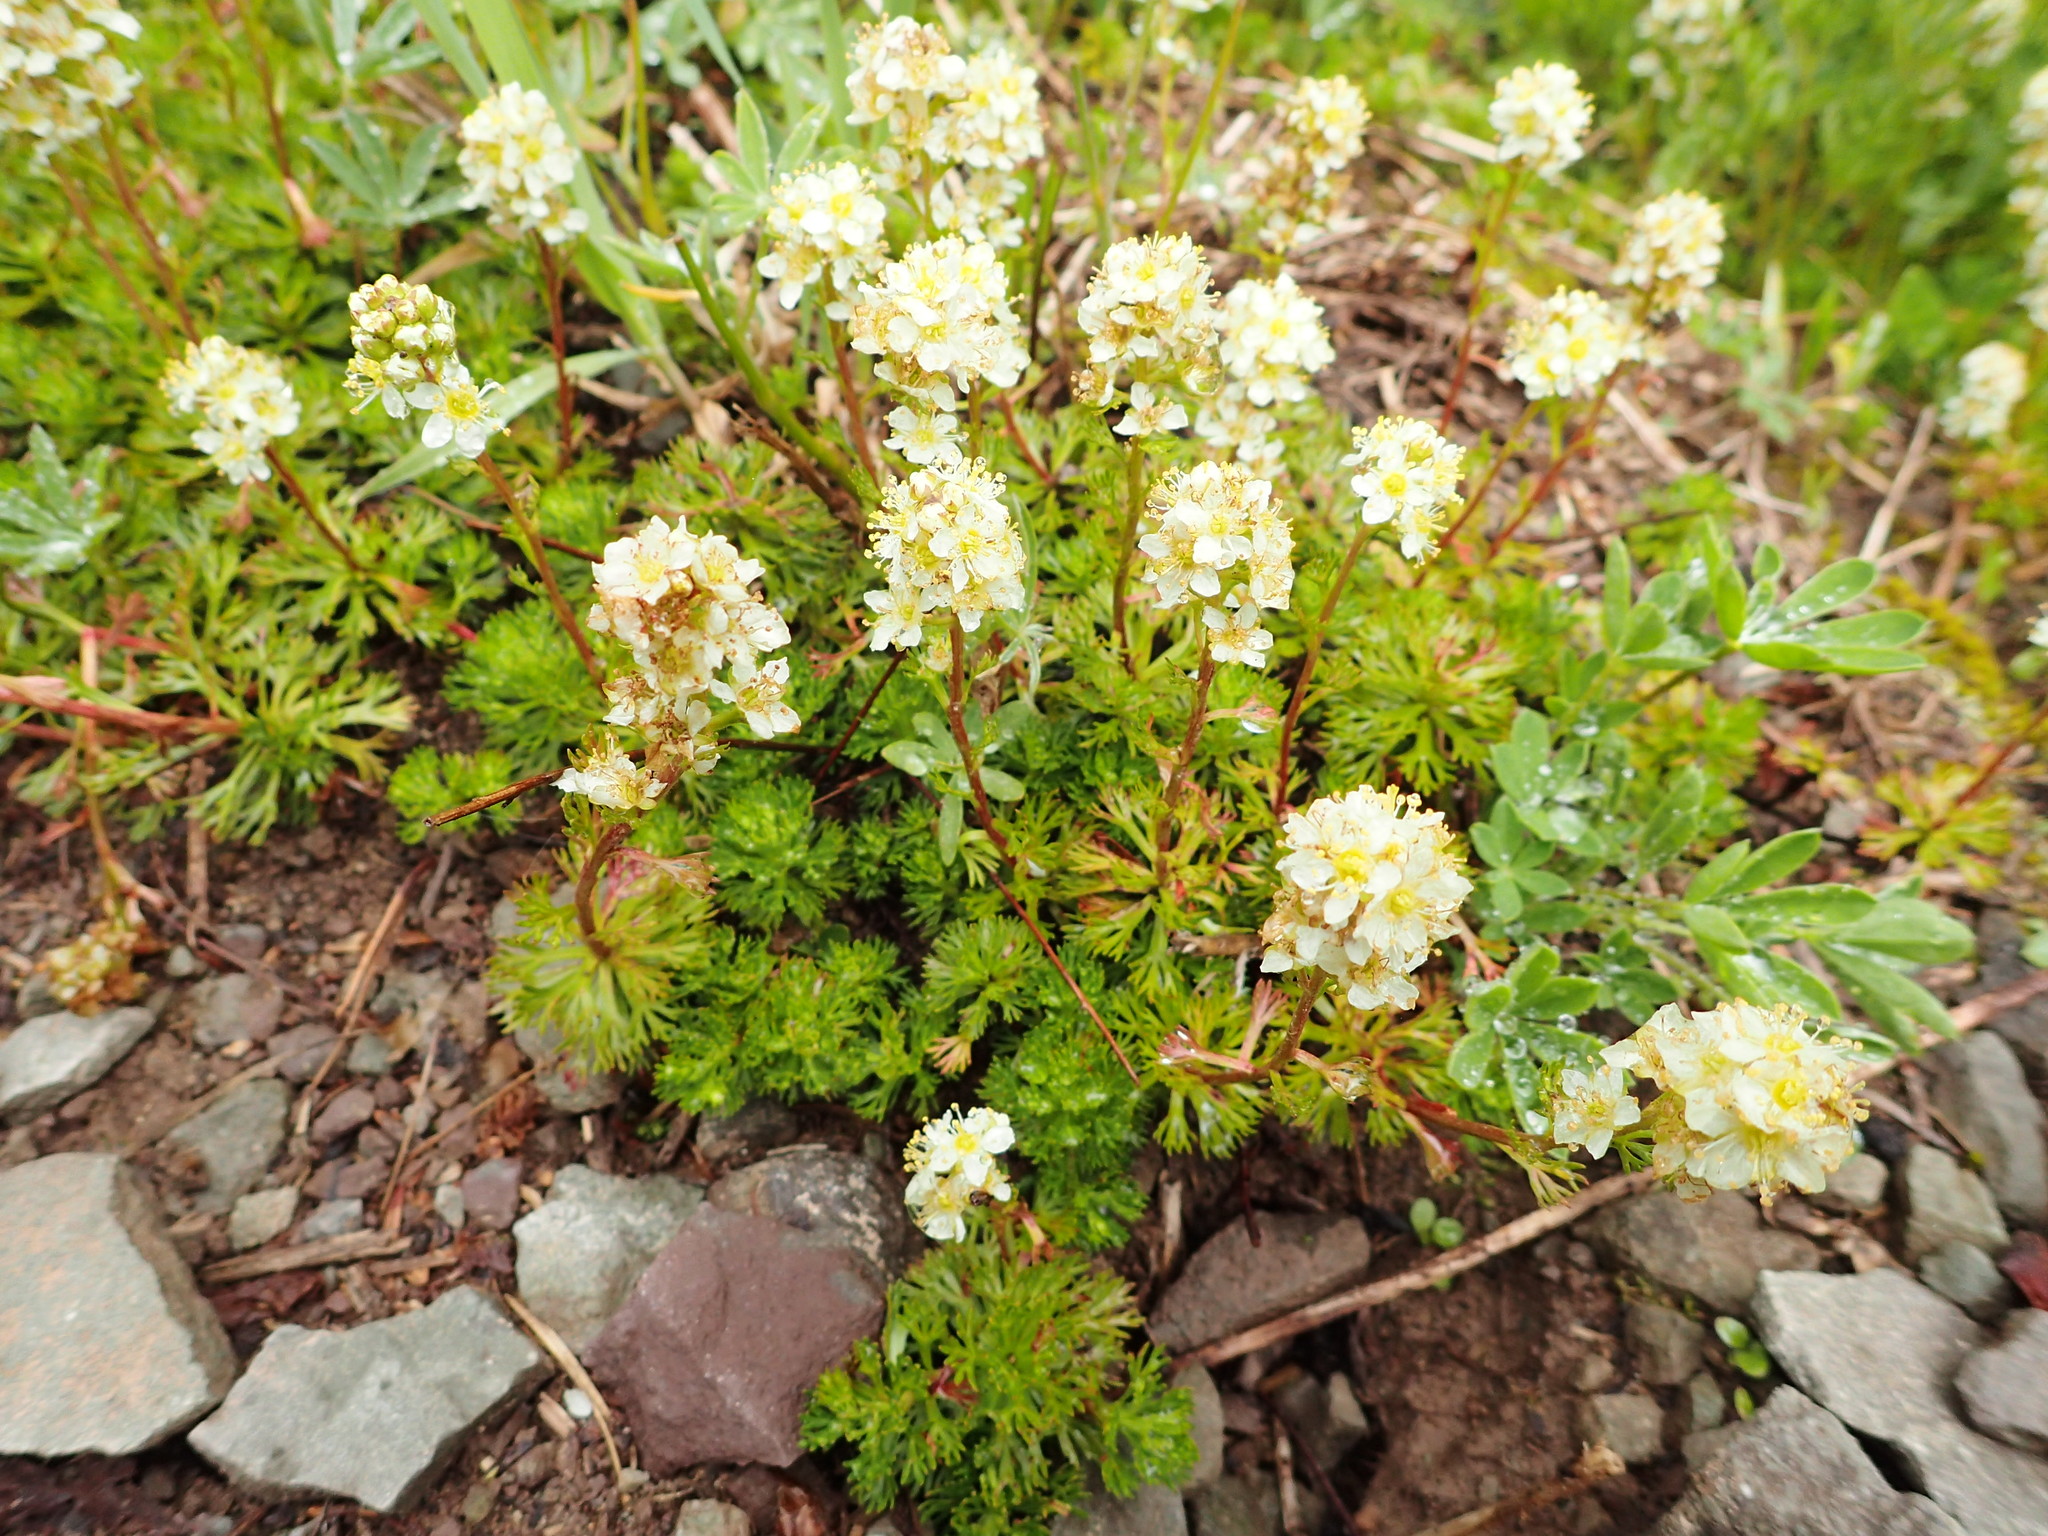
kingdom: Plantae
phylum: Tracheophyta
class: Magnoliopsida
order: Rosales
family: Rosaceae
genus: Luetkea
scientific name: Luetkea pectinata
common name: Partridgefoot
